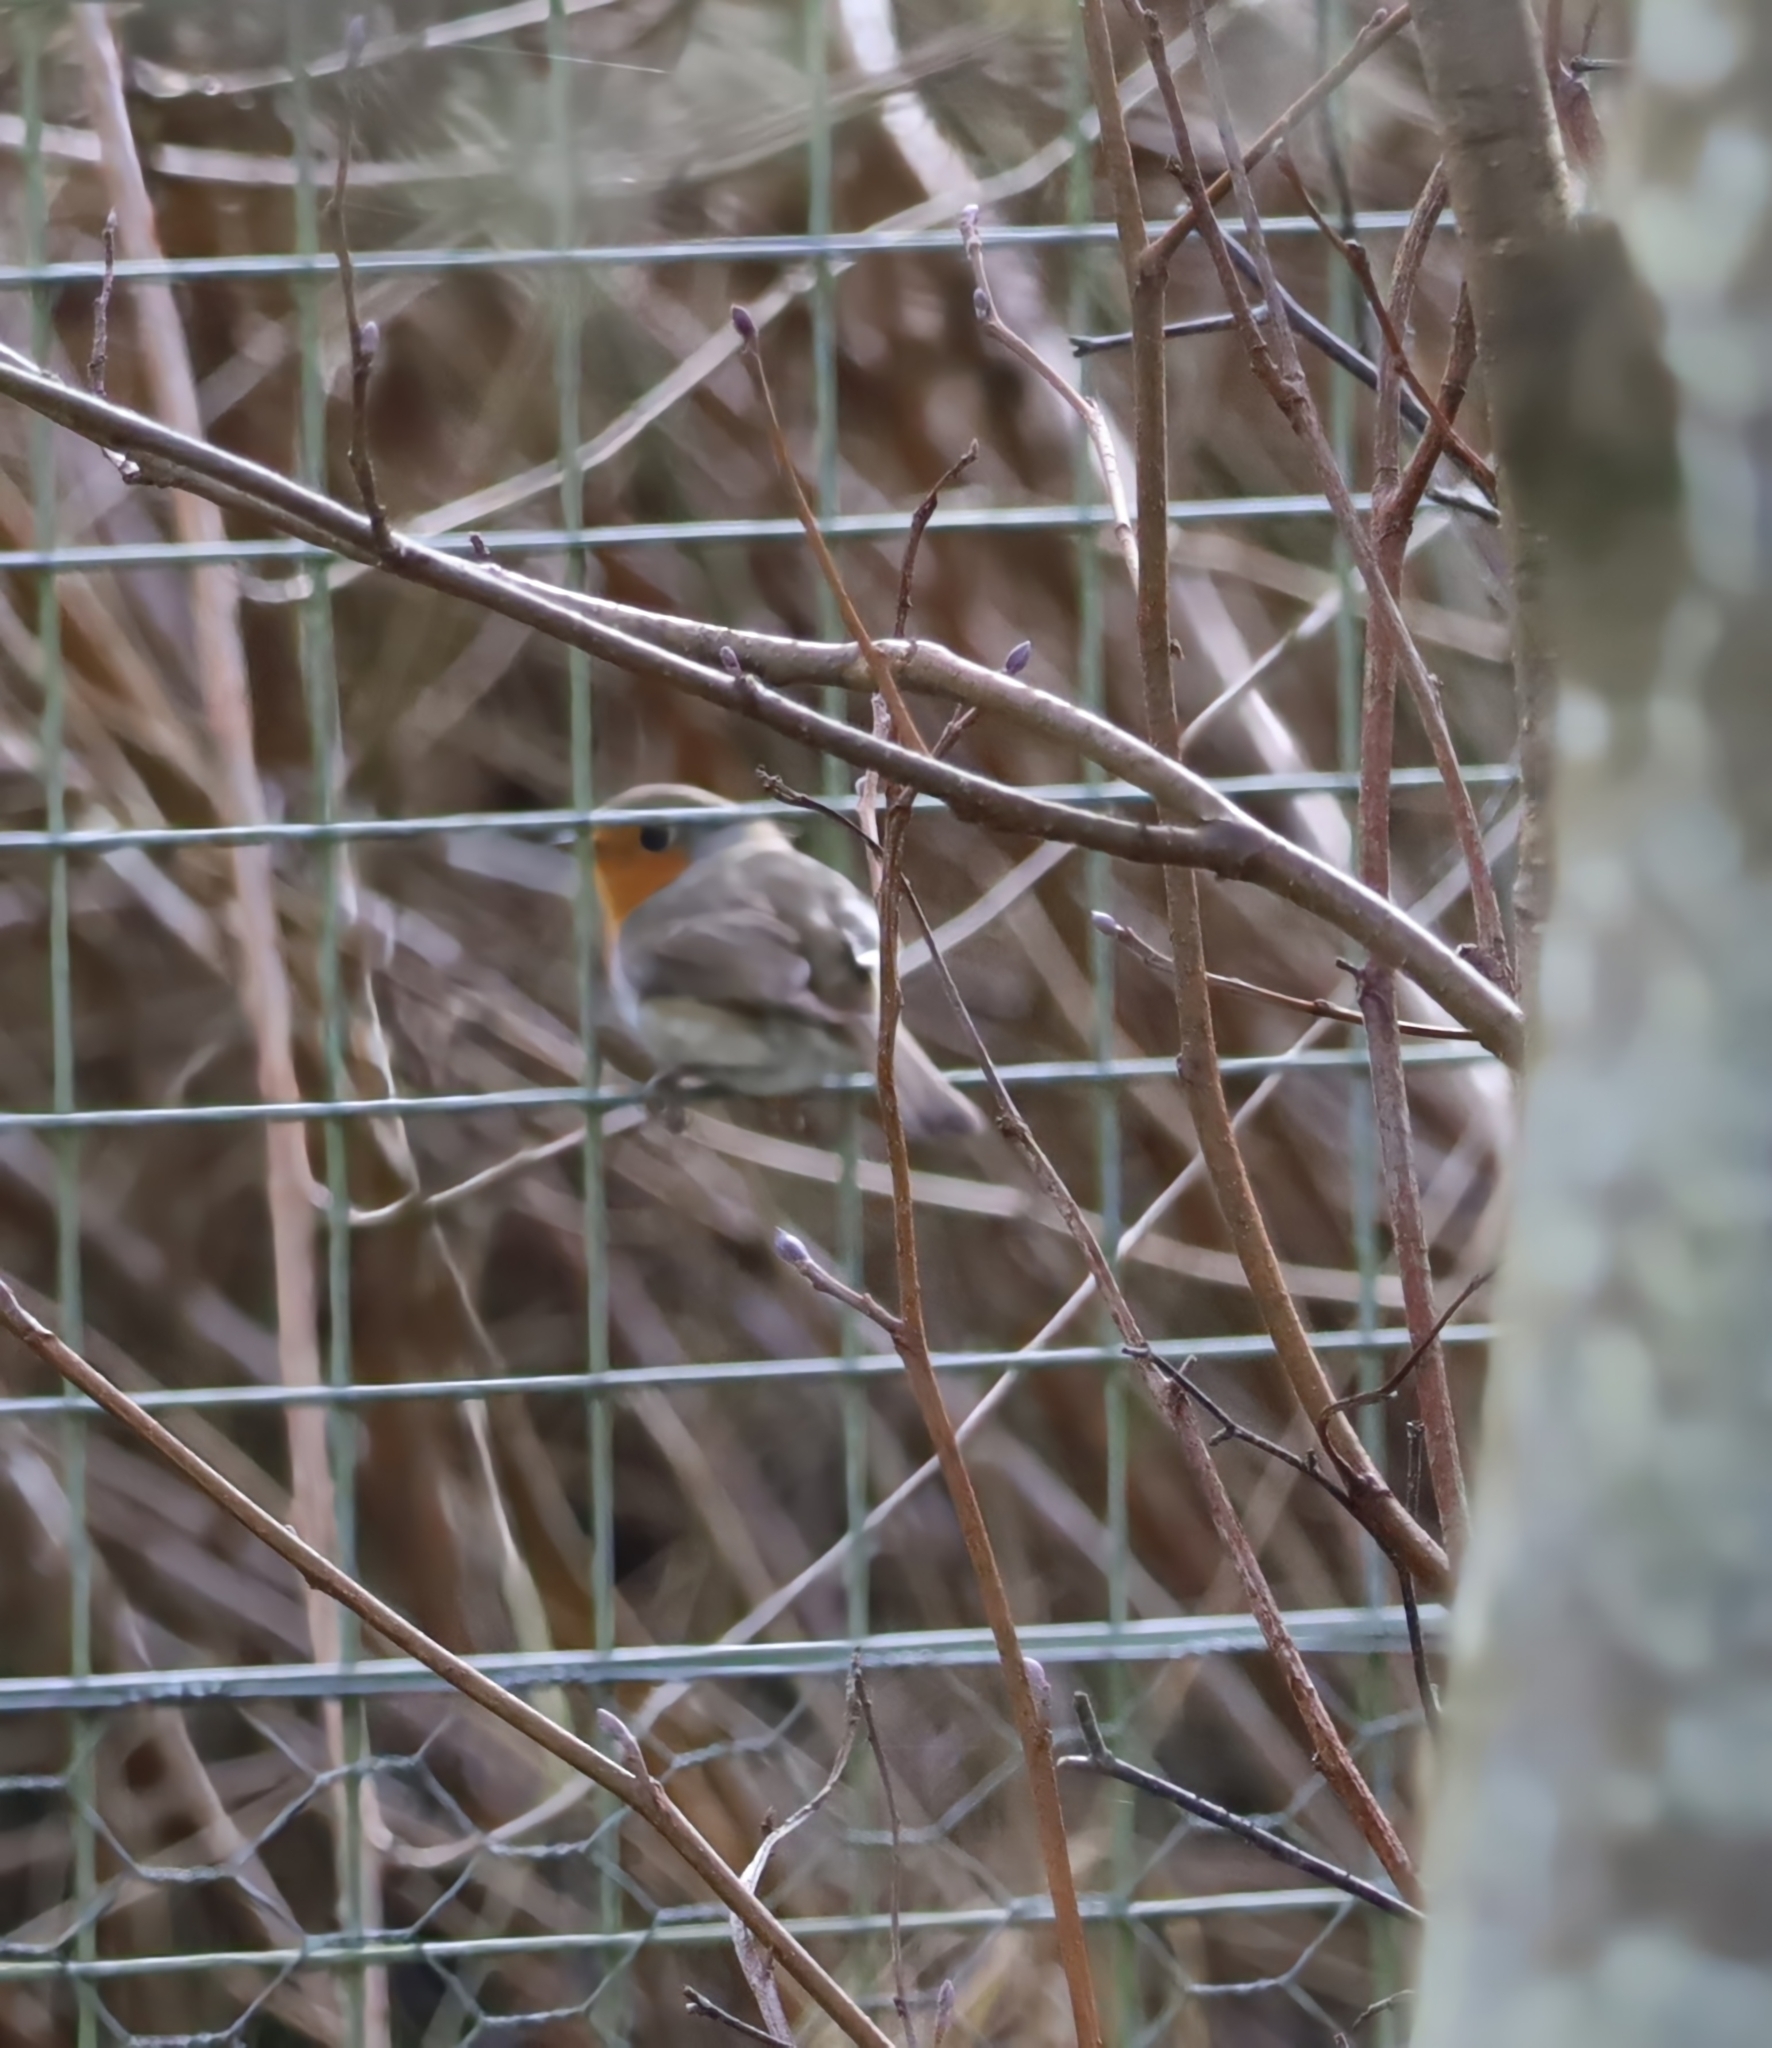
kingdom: Animalia
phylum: Chordata
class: Aves
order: Passeriformes
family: Muscicapidae
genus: Erithacus
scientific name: Erithacus rubecula
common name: European robin
